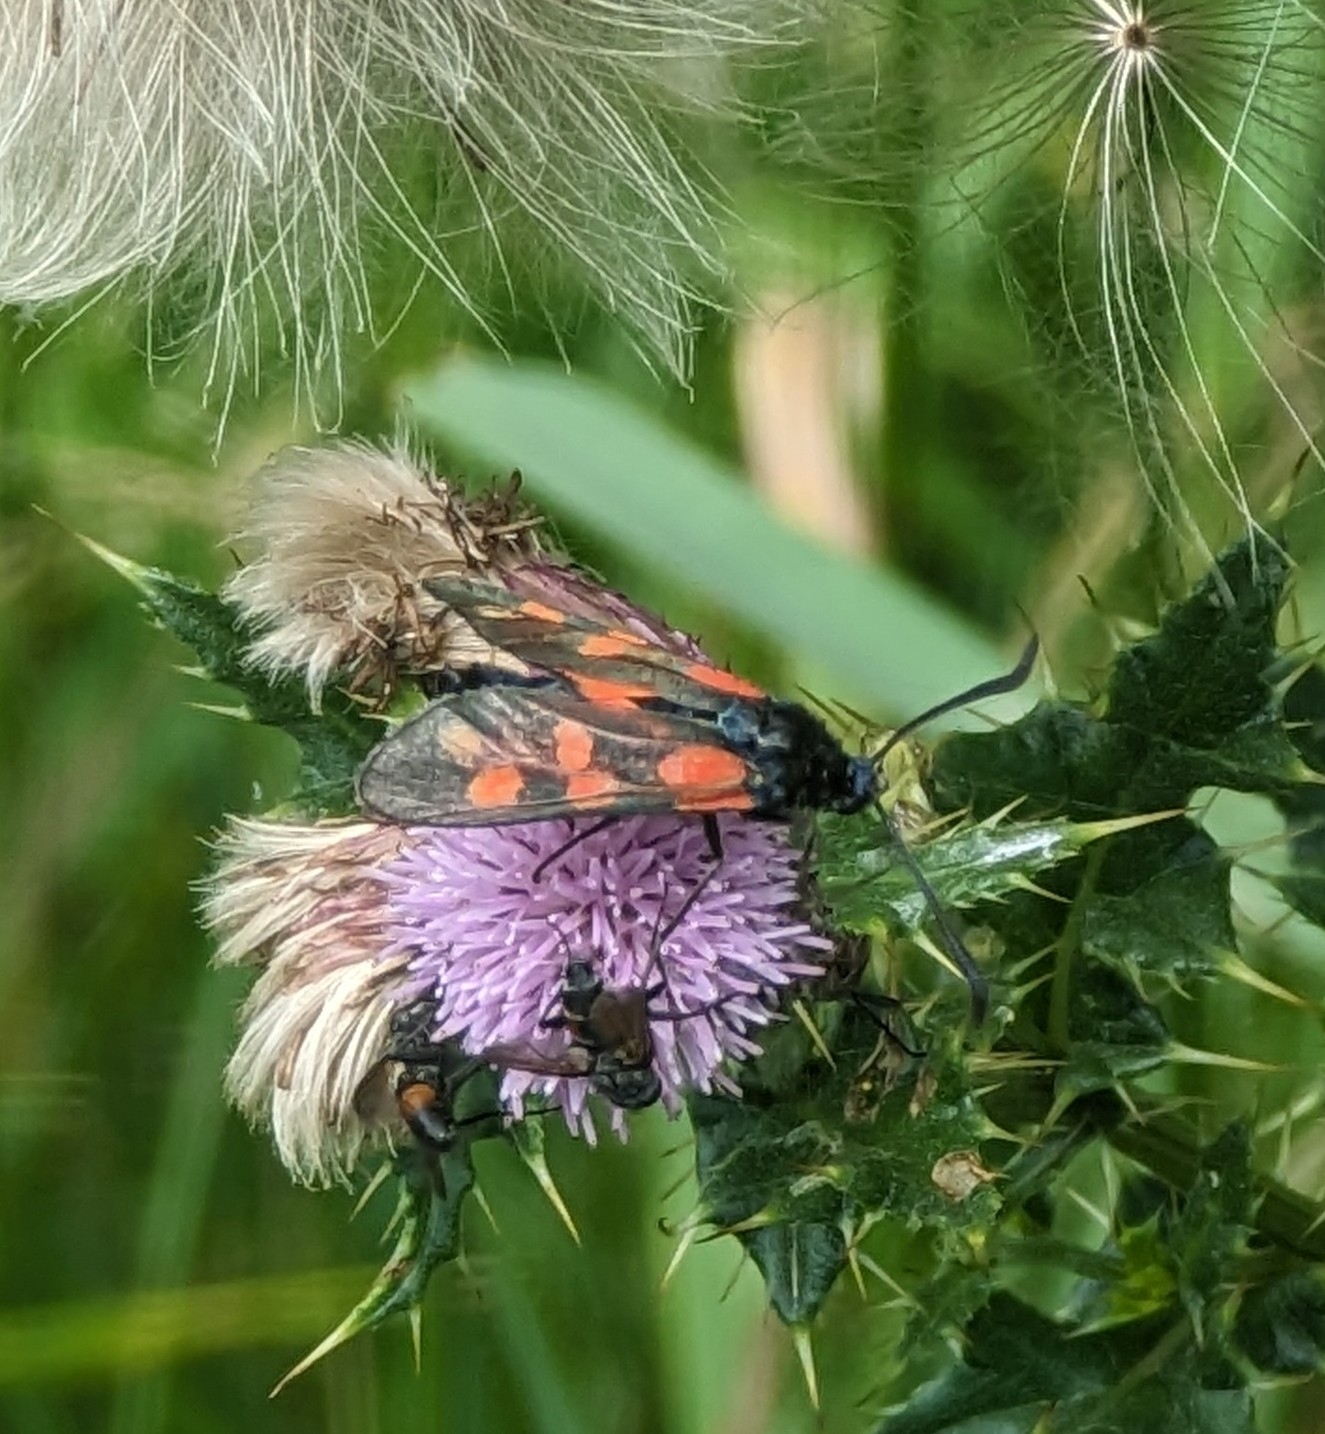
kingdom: Animalia
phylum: Arthropoda
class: Insecta
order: Lepidoptera
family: Zygaenidae
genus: Zygaena
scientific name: Zygaena filipendulae
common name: Six-spot burnet
